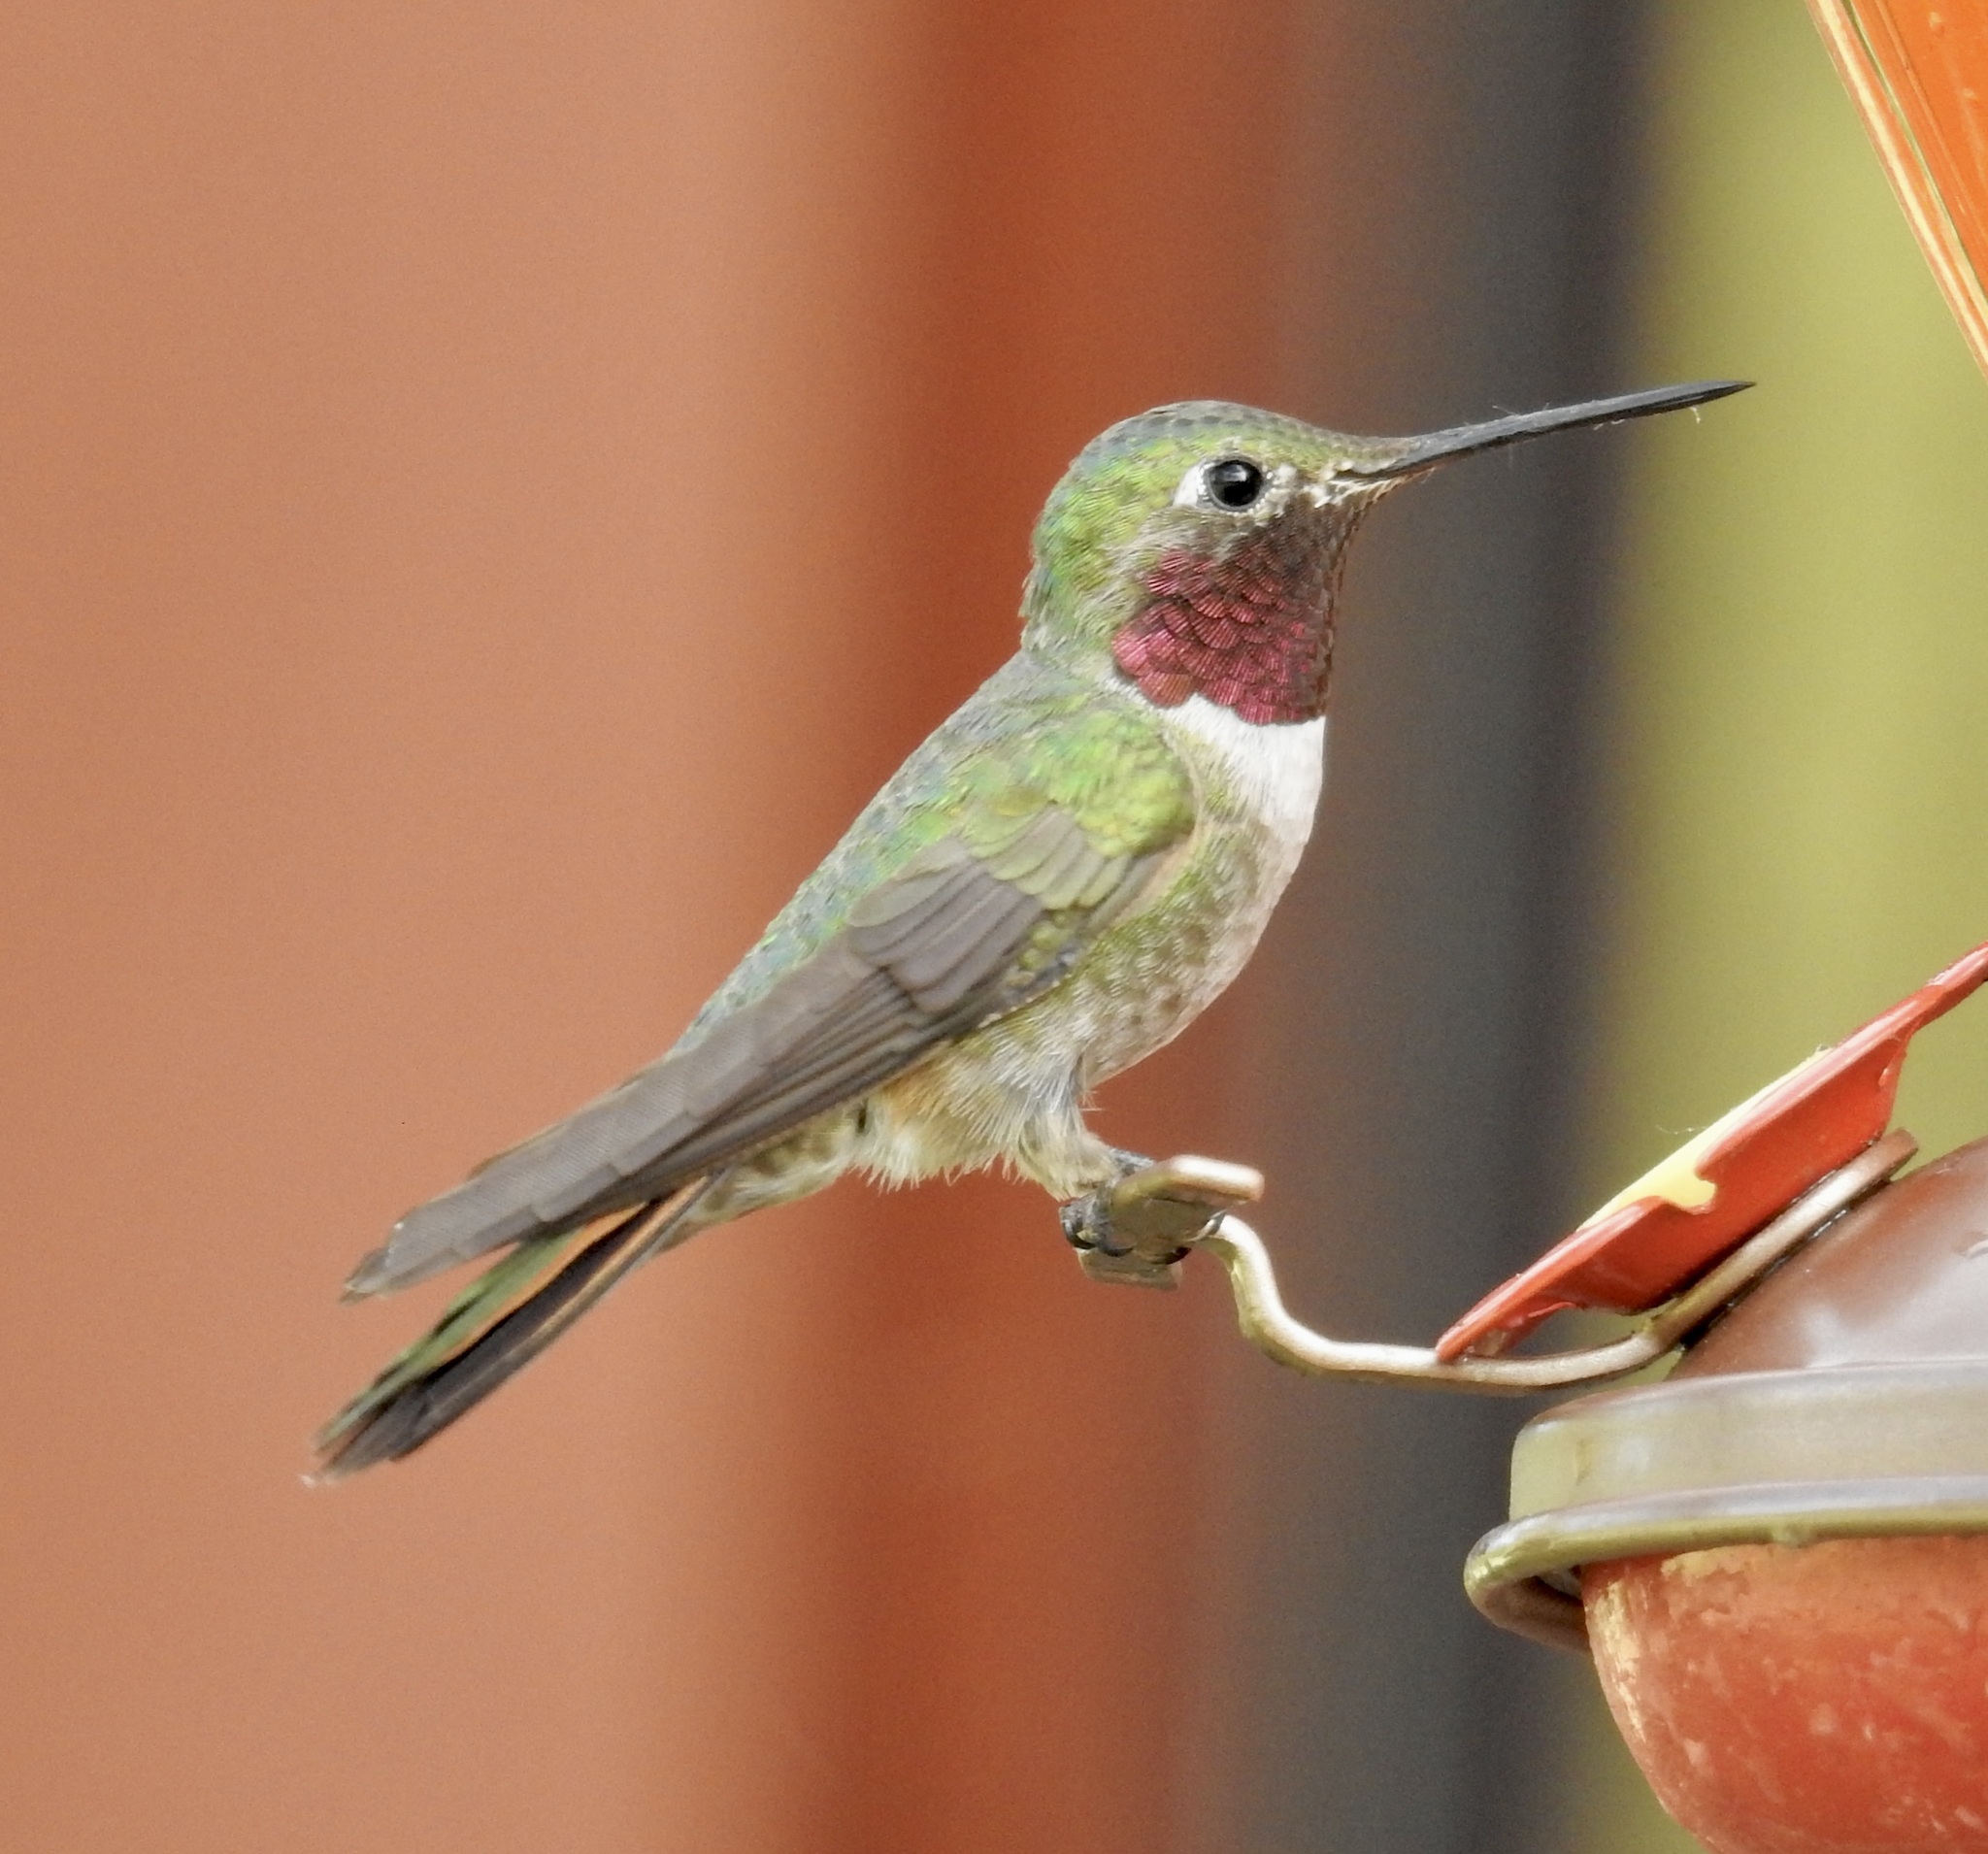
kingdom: Animalia
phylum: Chordata
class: Aves
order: Apodiformes
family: Trochilidae
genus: Selasphorus
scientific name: Selasphorus platycercus
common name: Broad-tailed hummingbird
